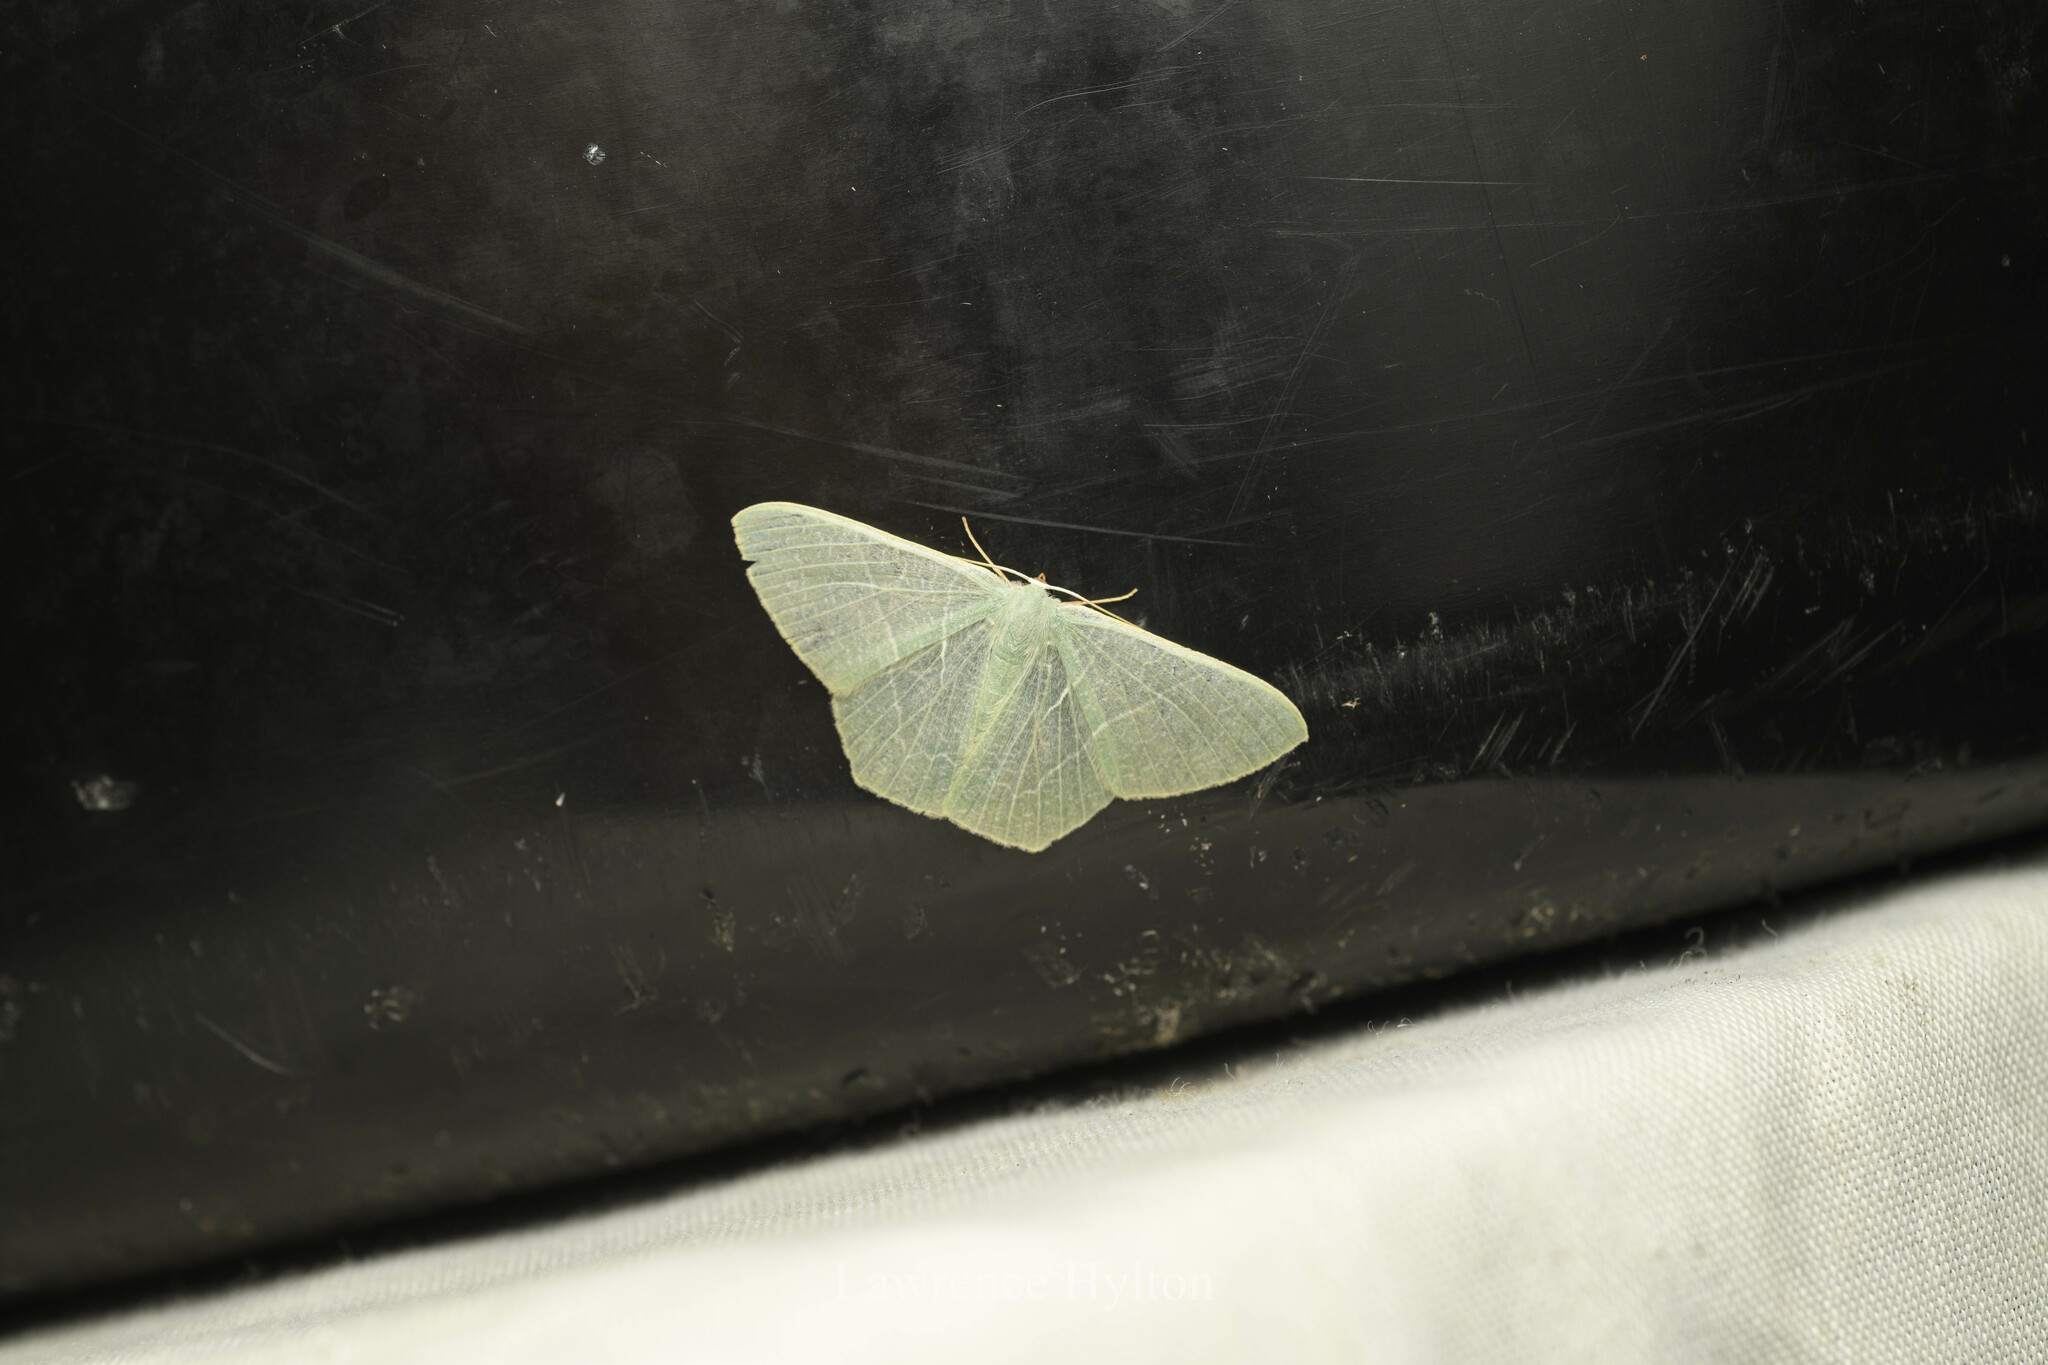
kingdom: Animalia
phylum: Arthropoda
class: Insecta
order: Lepidoptera
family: Geometridae
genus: Pelagodes
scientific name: Pelagodes antiquadraria
